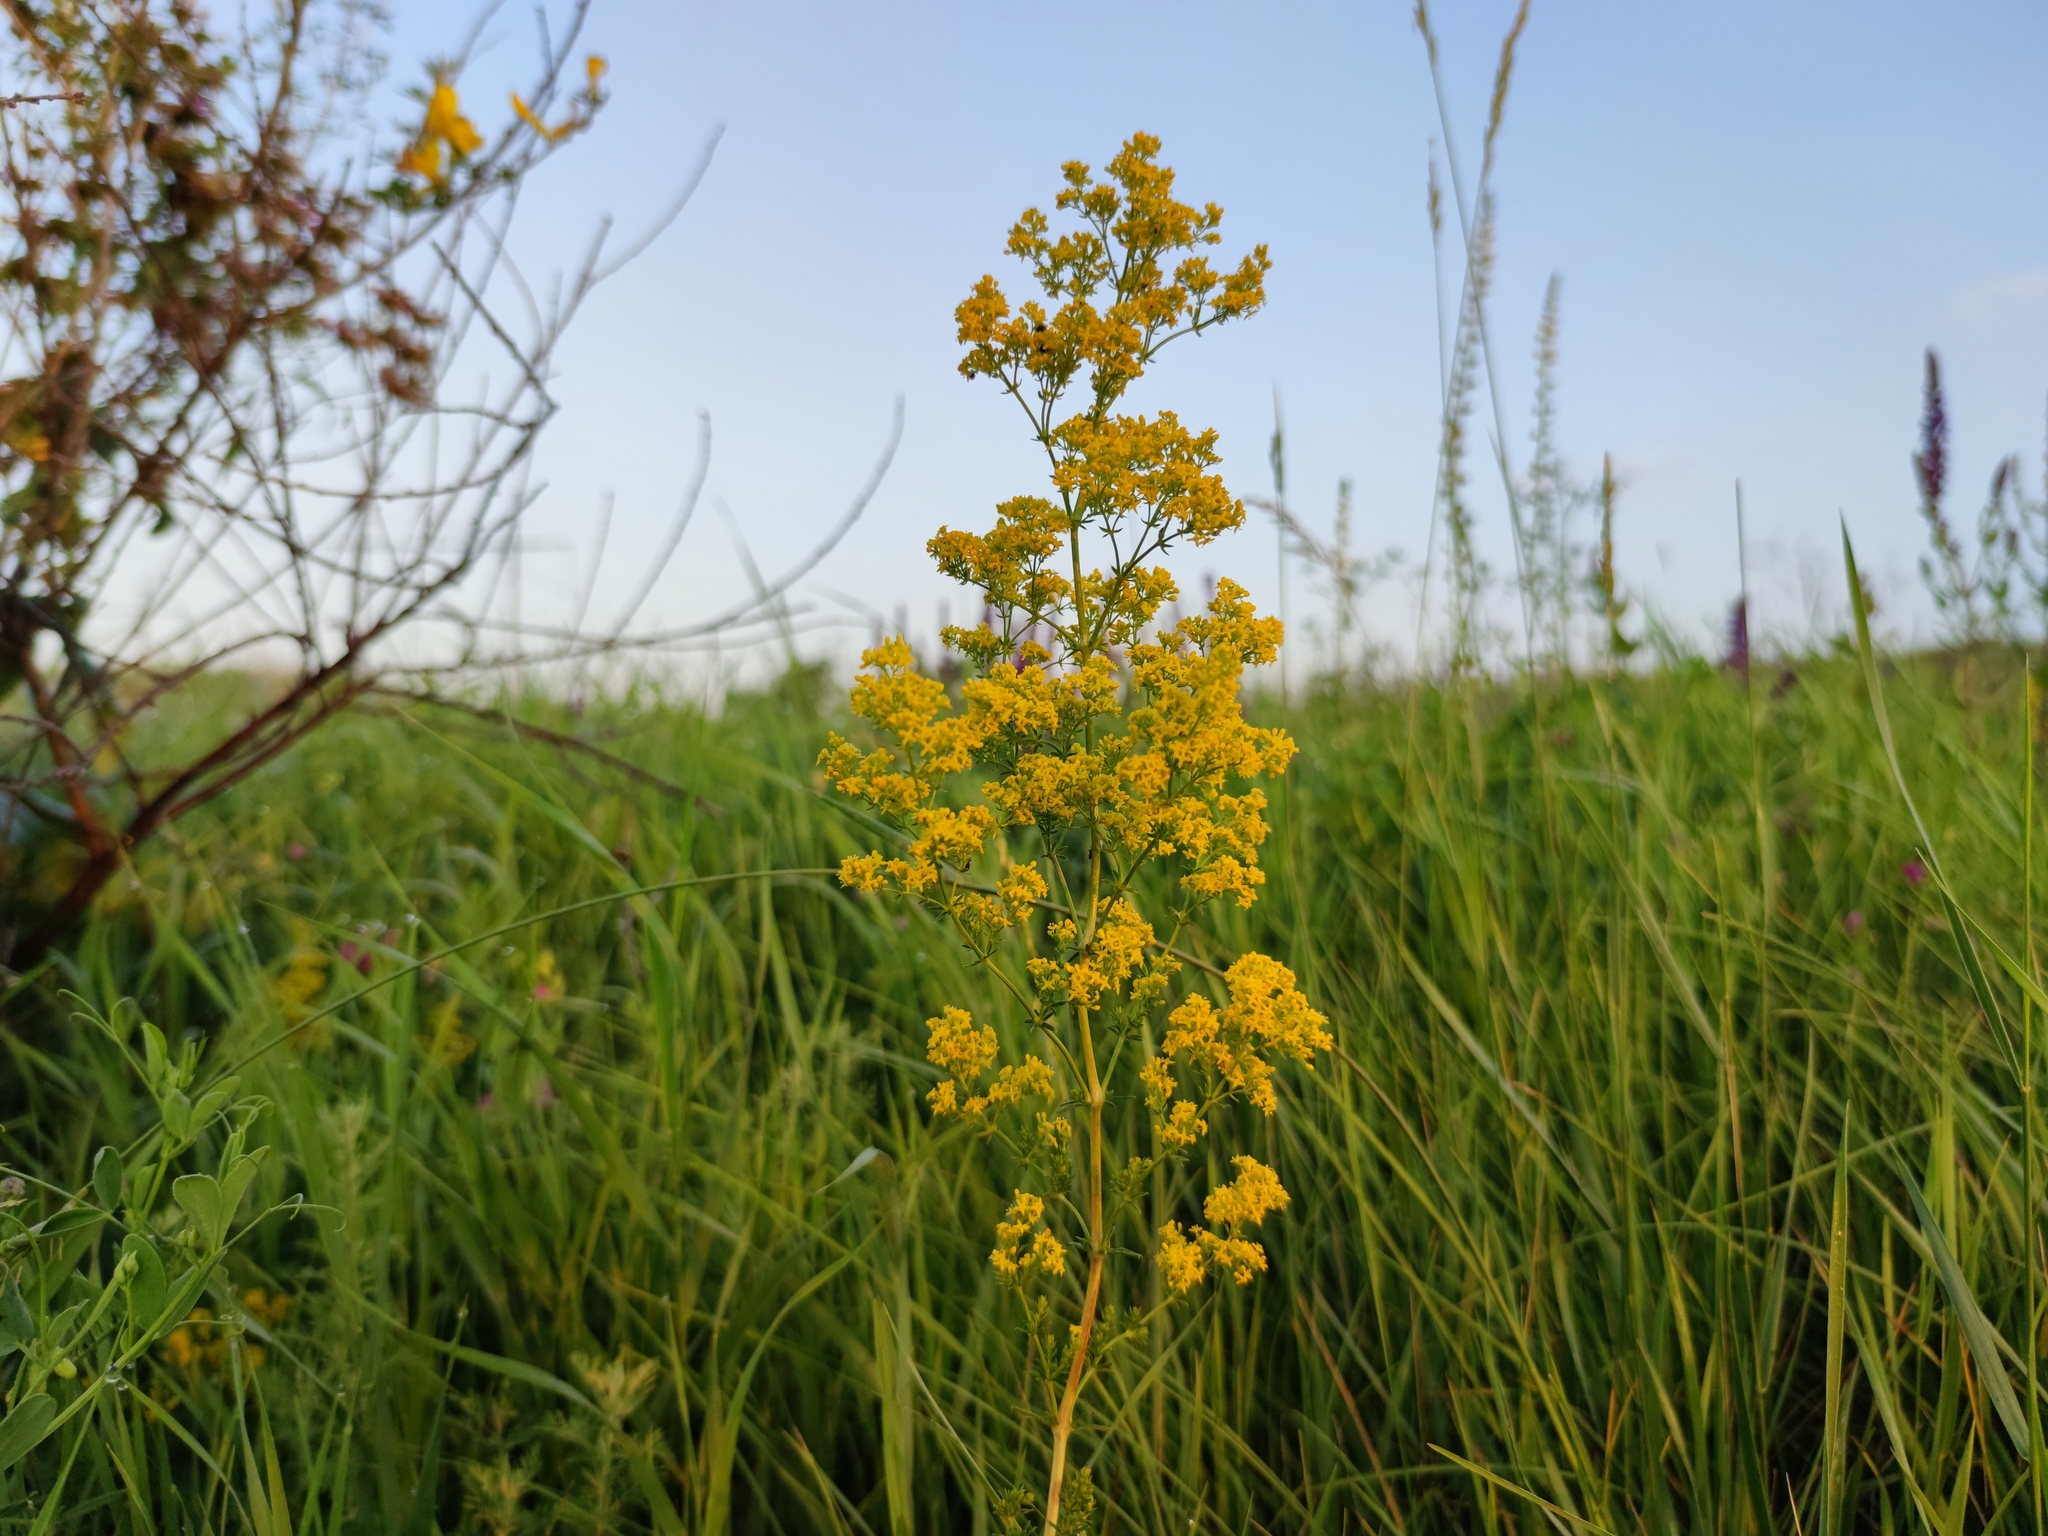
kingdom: Plantae
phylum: Tracheophyta
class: Magnoliopsida
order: Gentianales
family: Rubiaceae
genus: Galium
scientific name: Galium verum
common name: Lady's bedstraw
